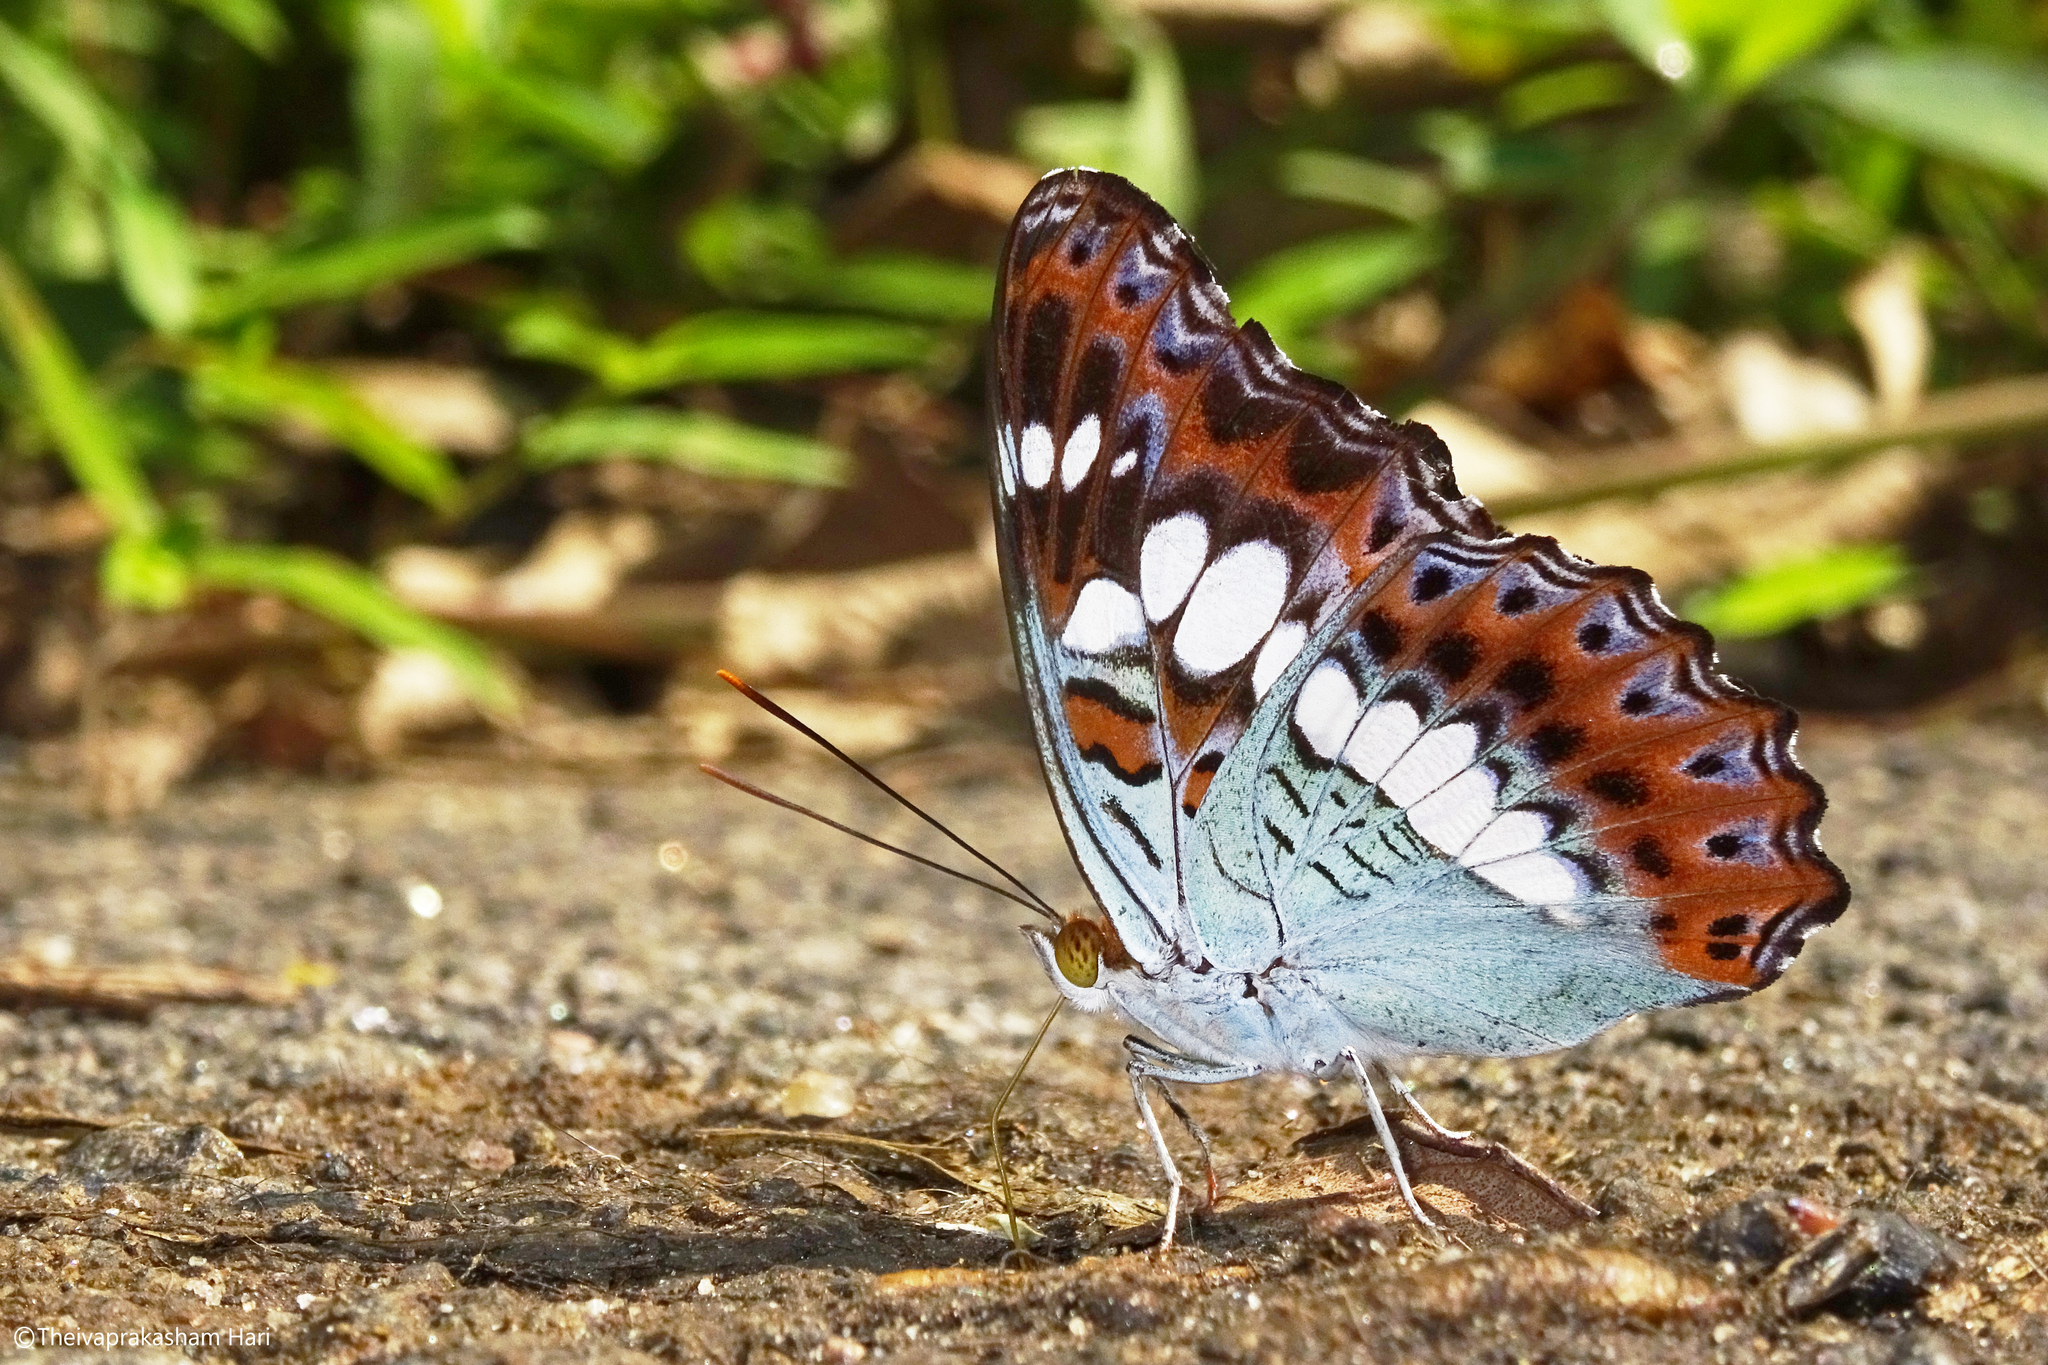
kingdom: Animalia
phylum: Arthropoda
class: Insecta
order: Lepidoptera
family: Nymphalidae
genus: Limenitis
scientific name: Limenitis Moduza procris
